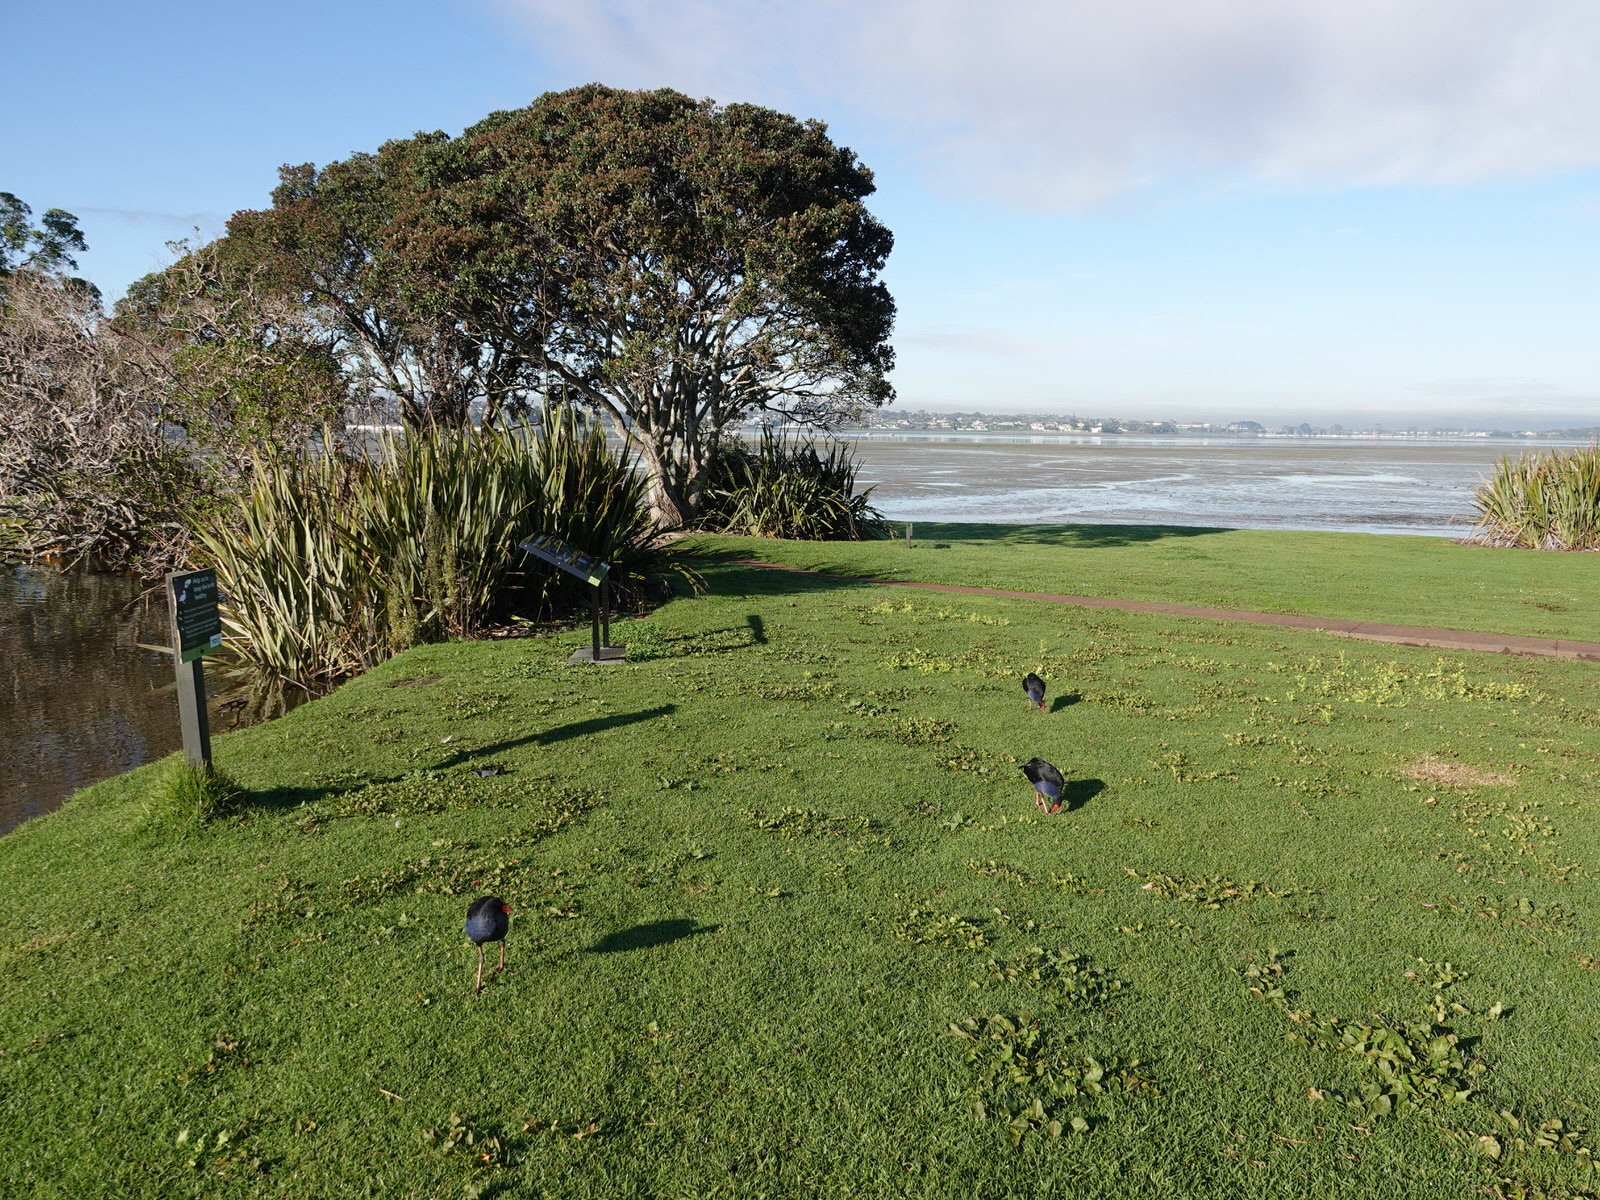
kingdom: Animalia
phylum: Chordata
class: Aves
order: Gruiformes
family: Rallidae
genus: Porphyrio
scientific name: Porphyrio melanotus
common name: Australasian swamphen
